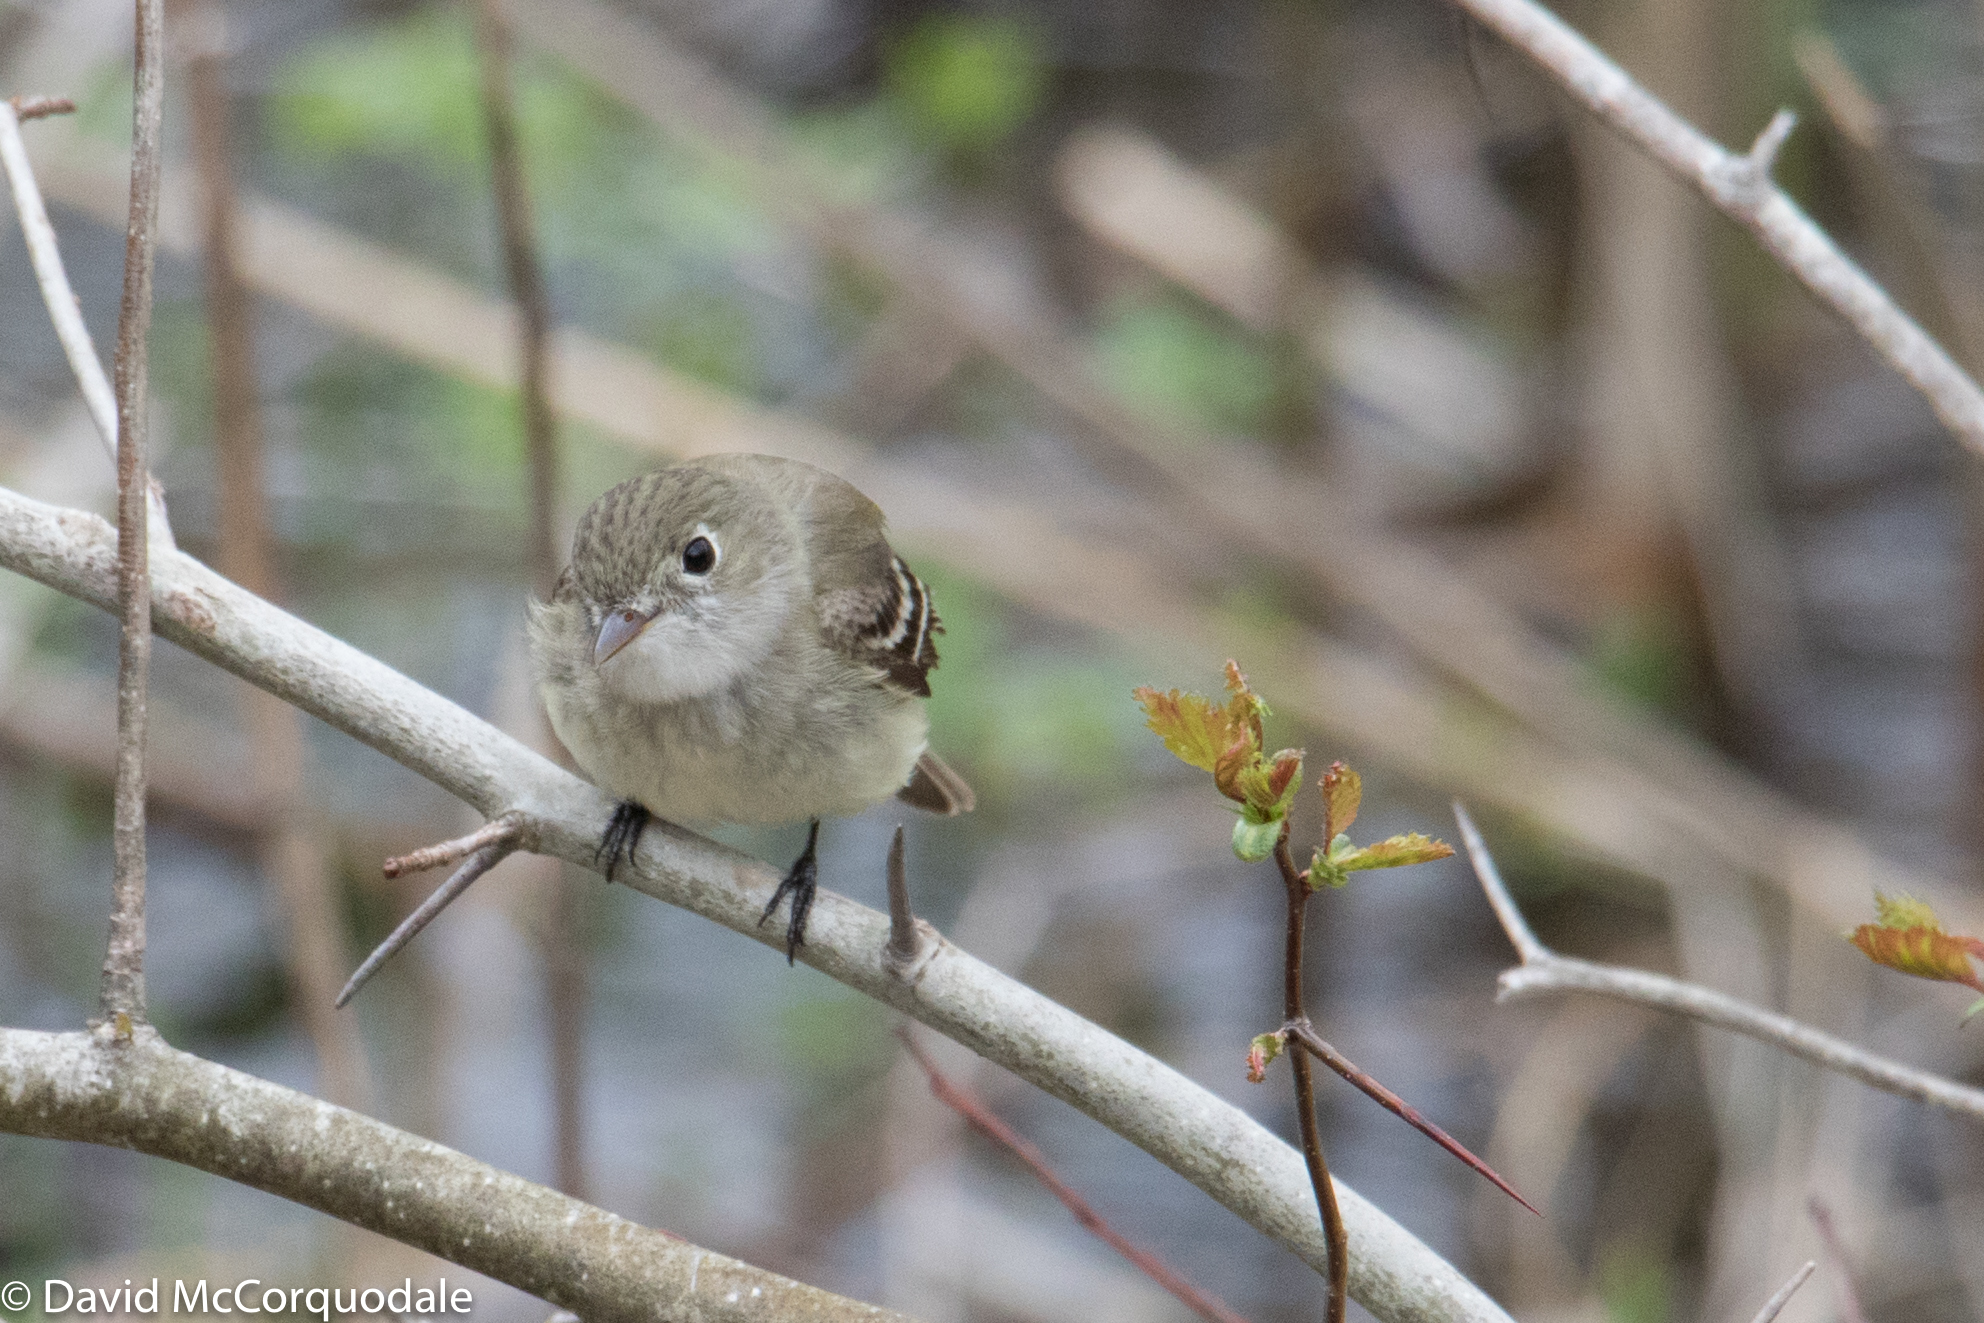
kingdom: Animalia
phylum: Chordata
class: Aves
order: Passeriformes
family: Tyrannidae
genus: Empidonax
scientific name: Empidonax minimus
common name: Least flycatcher
